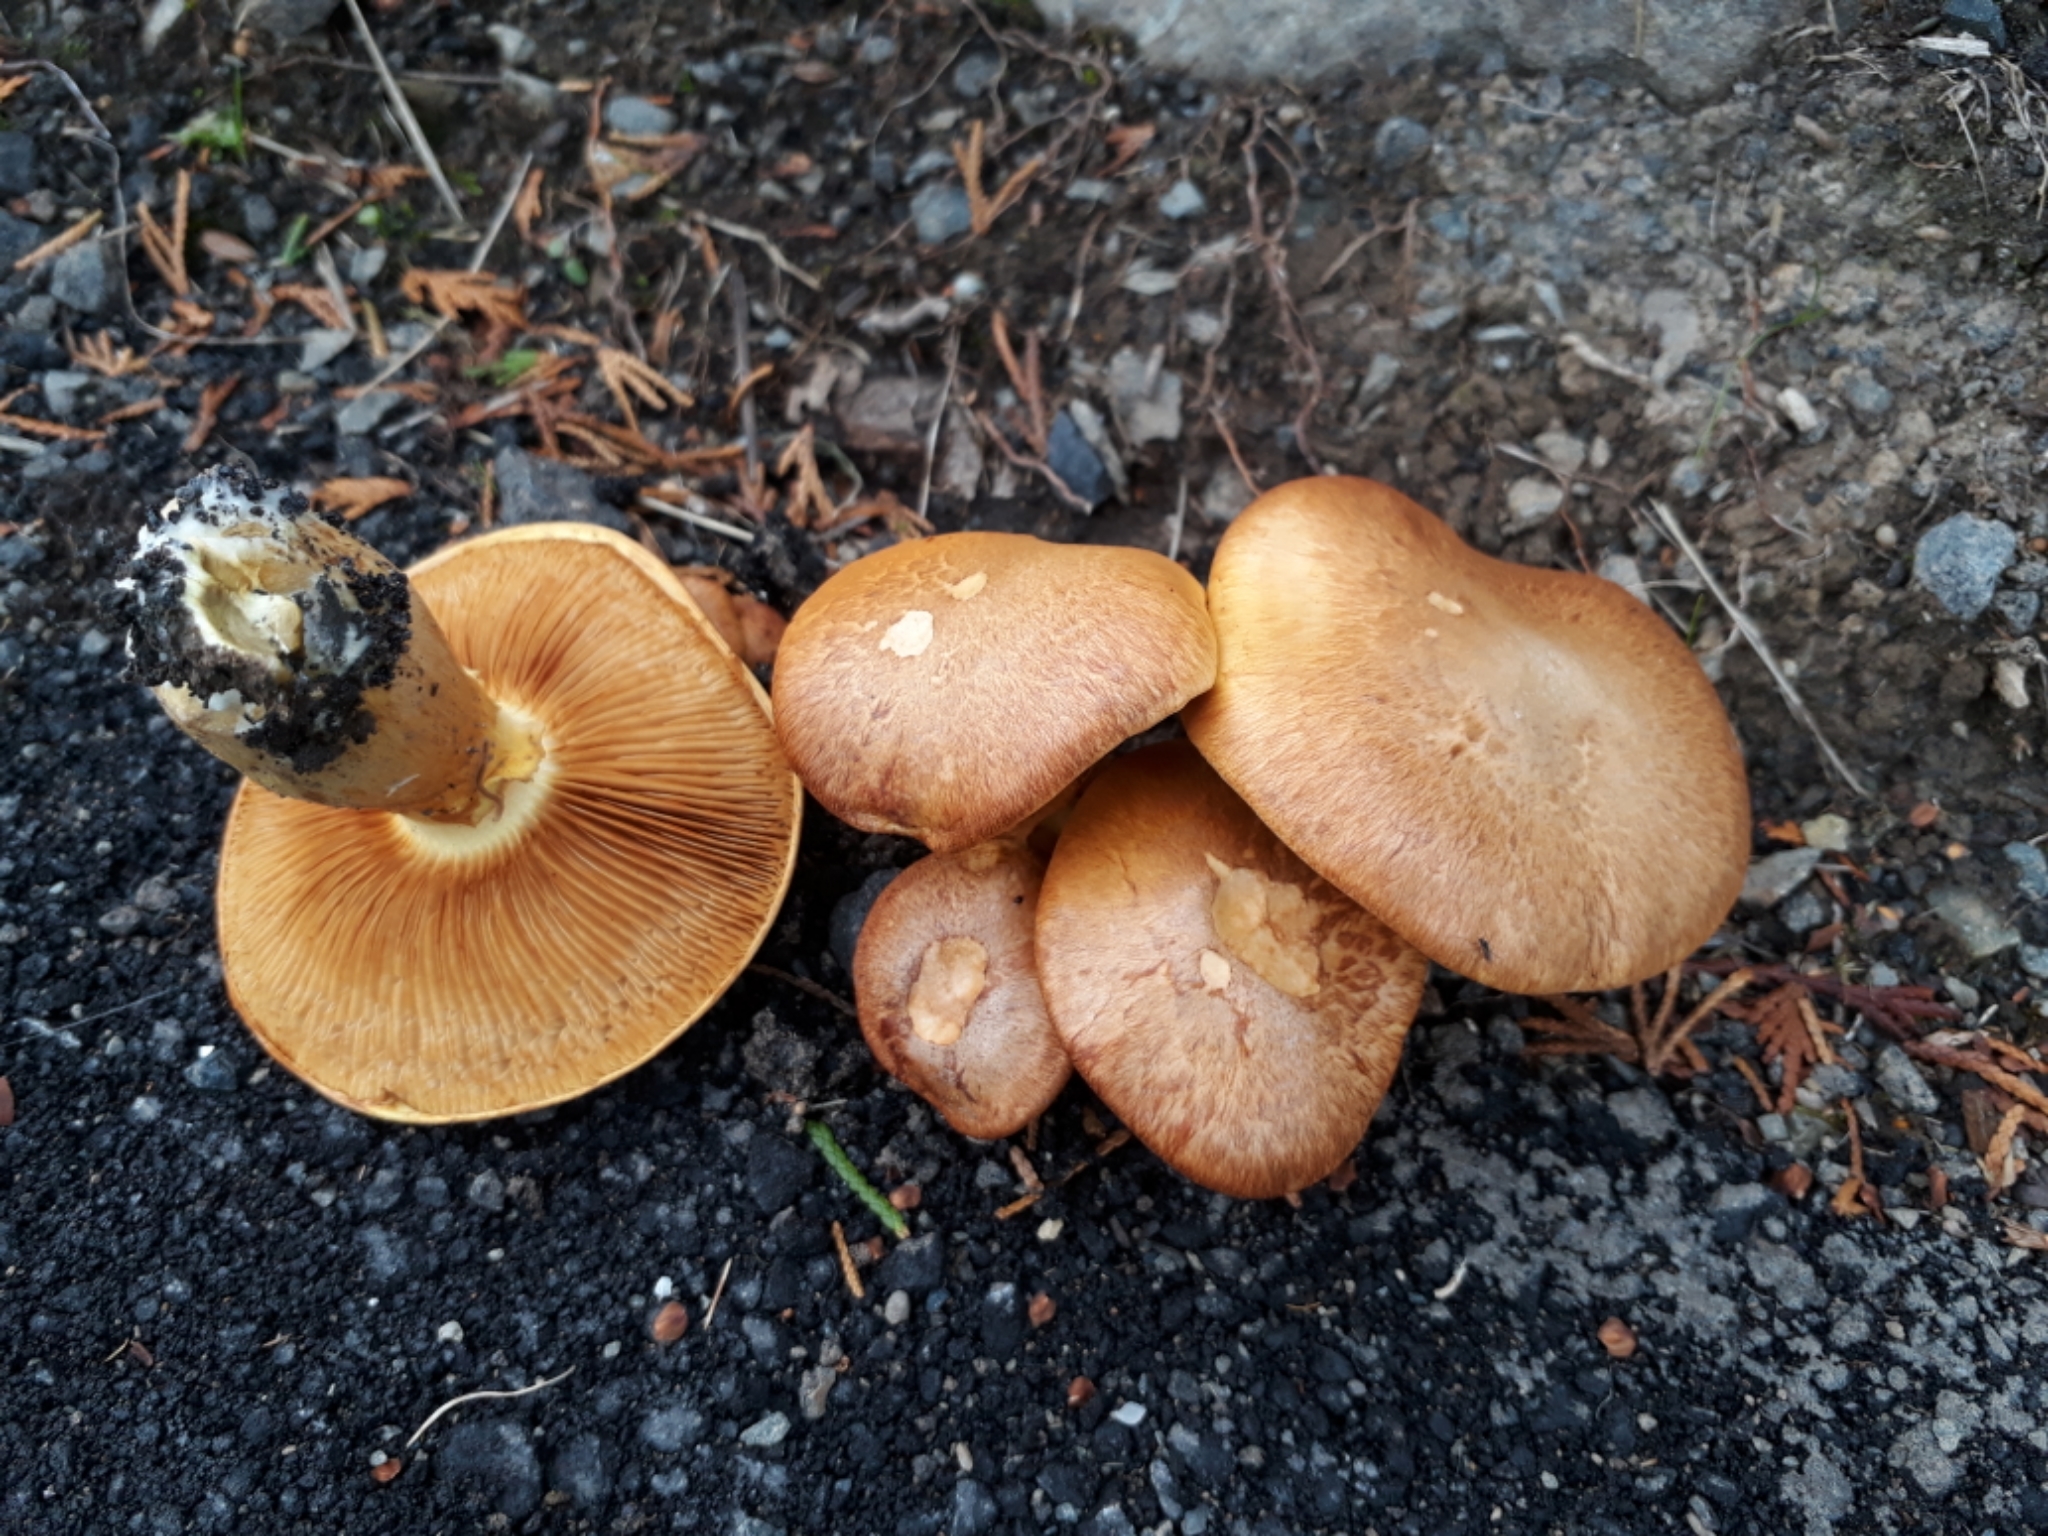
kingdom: Fungi
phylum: Basidiomycota
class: Agaricomycetes
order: Agaricales
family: Hymenogastraceae
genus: Gymnopilus
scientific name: Gymnopilus junonius
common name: Spectacular rustgill
